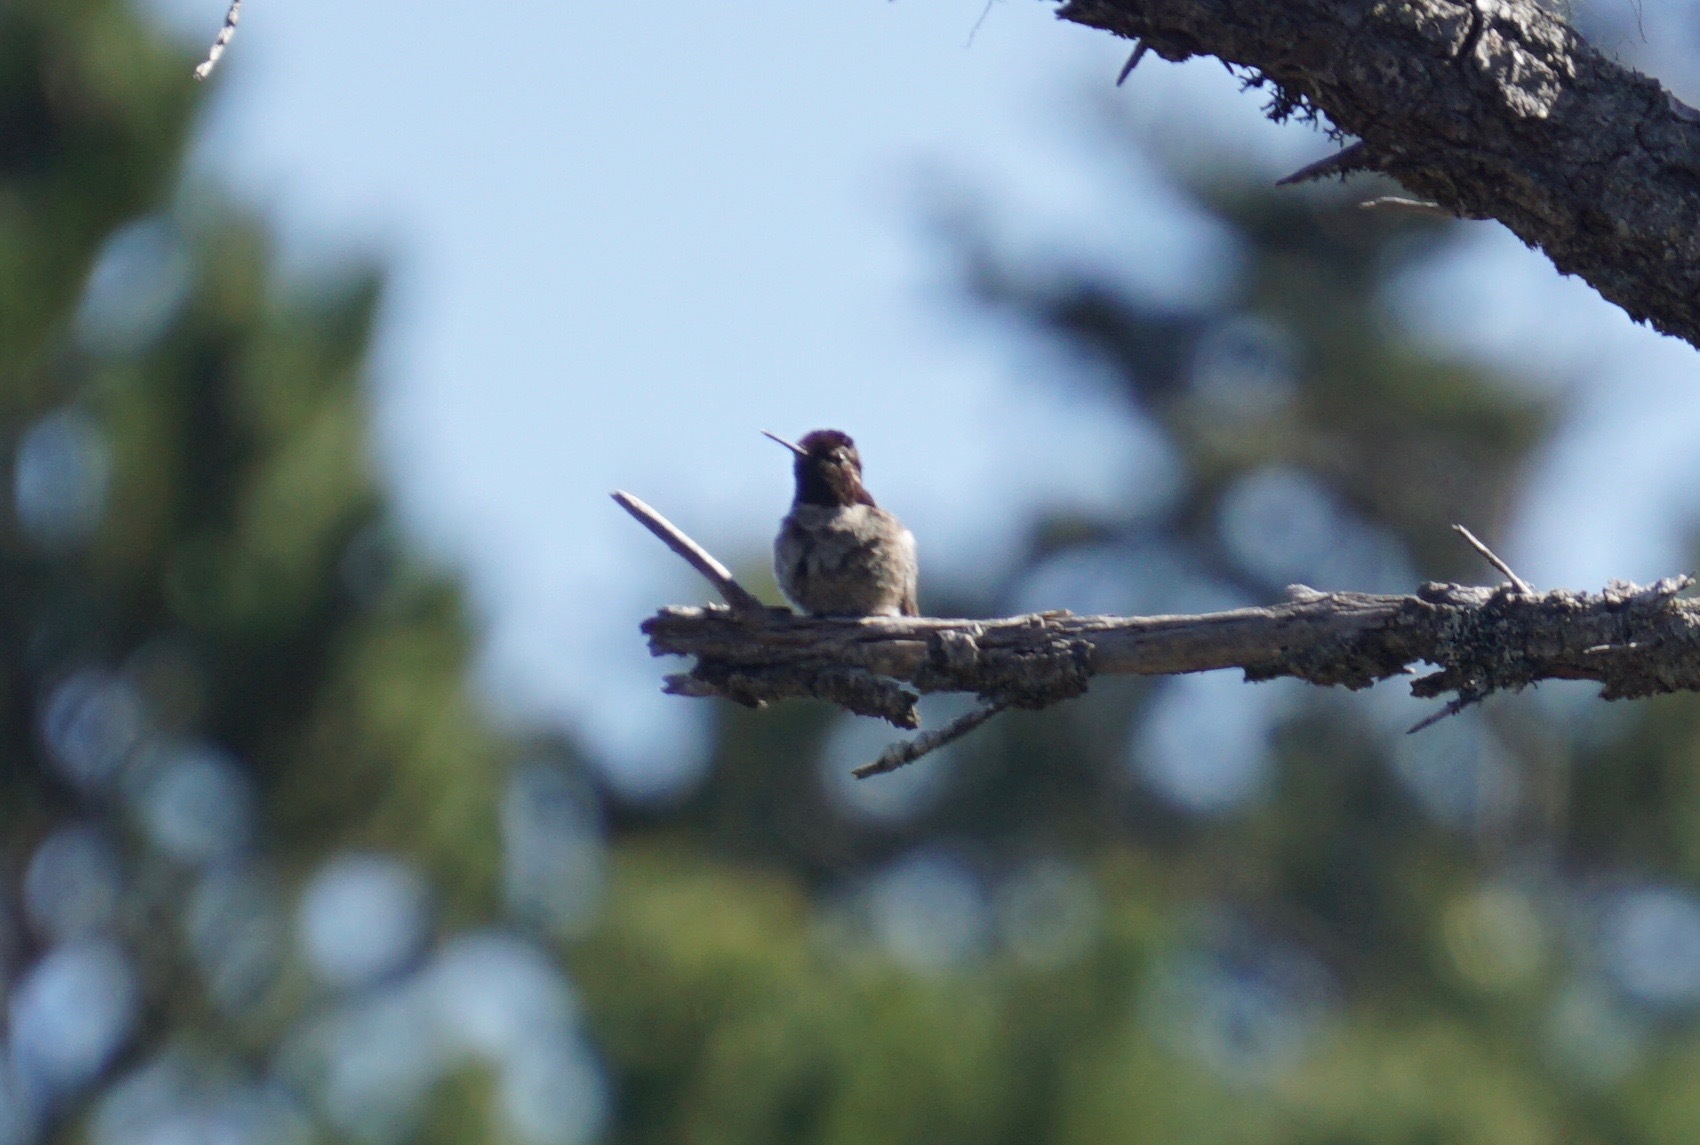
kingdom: Animalia
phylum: Chordata
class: Aves
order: Apodiformes
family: Trochilidae
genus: Calypte
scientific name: Calypte anna
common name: Anna's hummingbird
